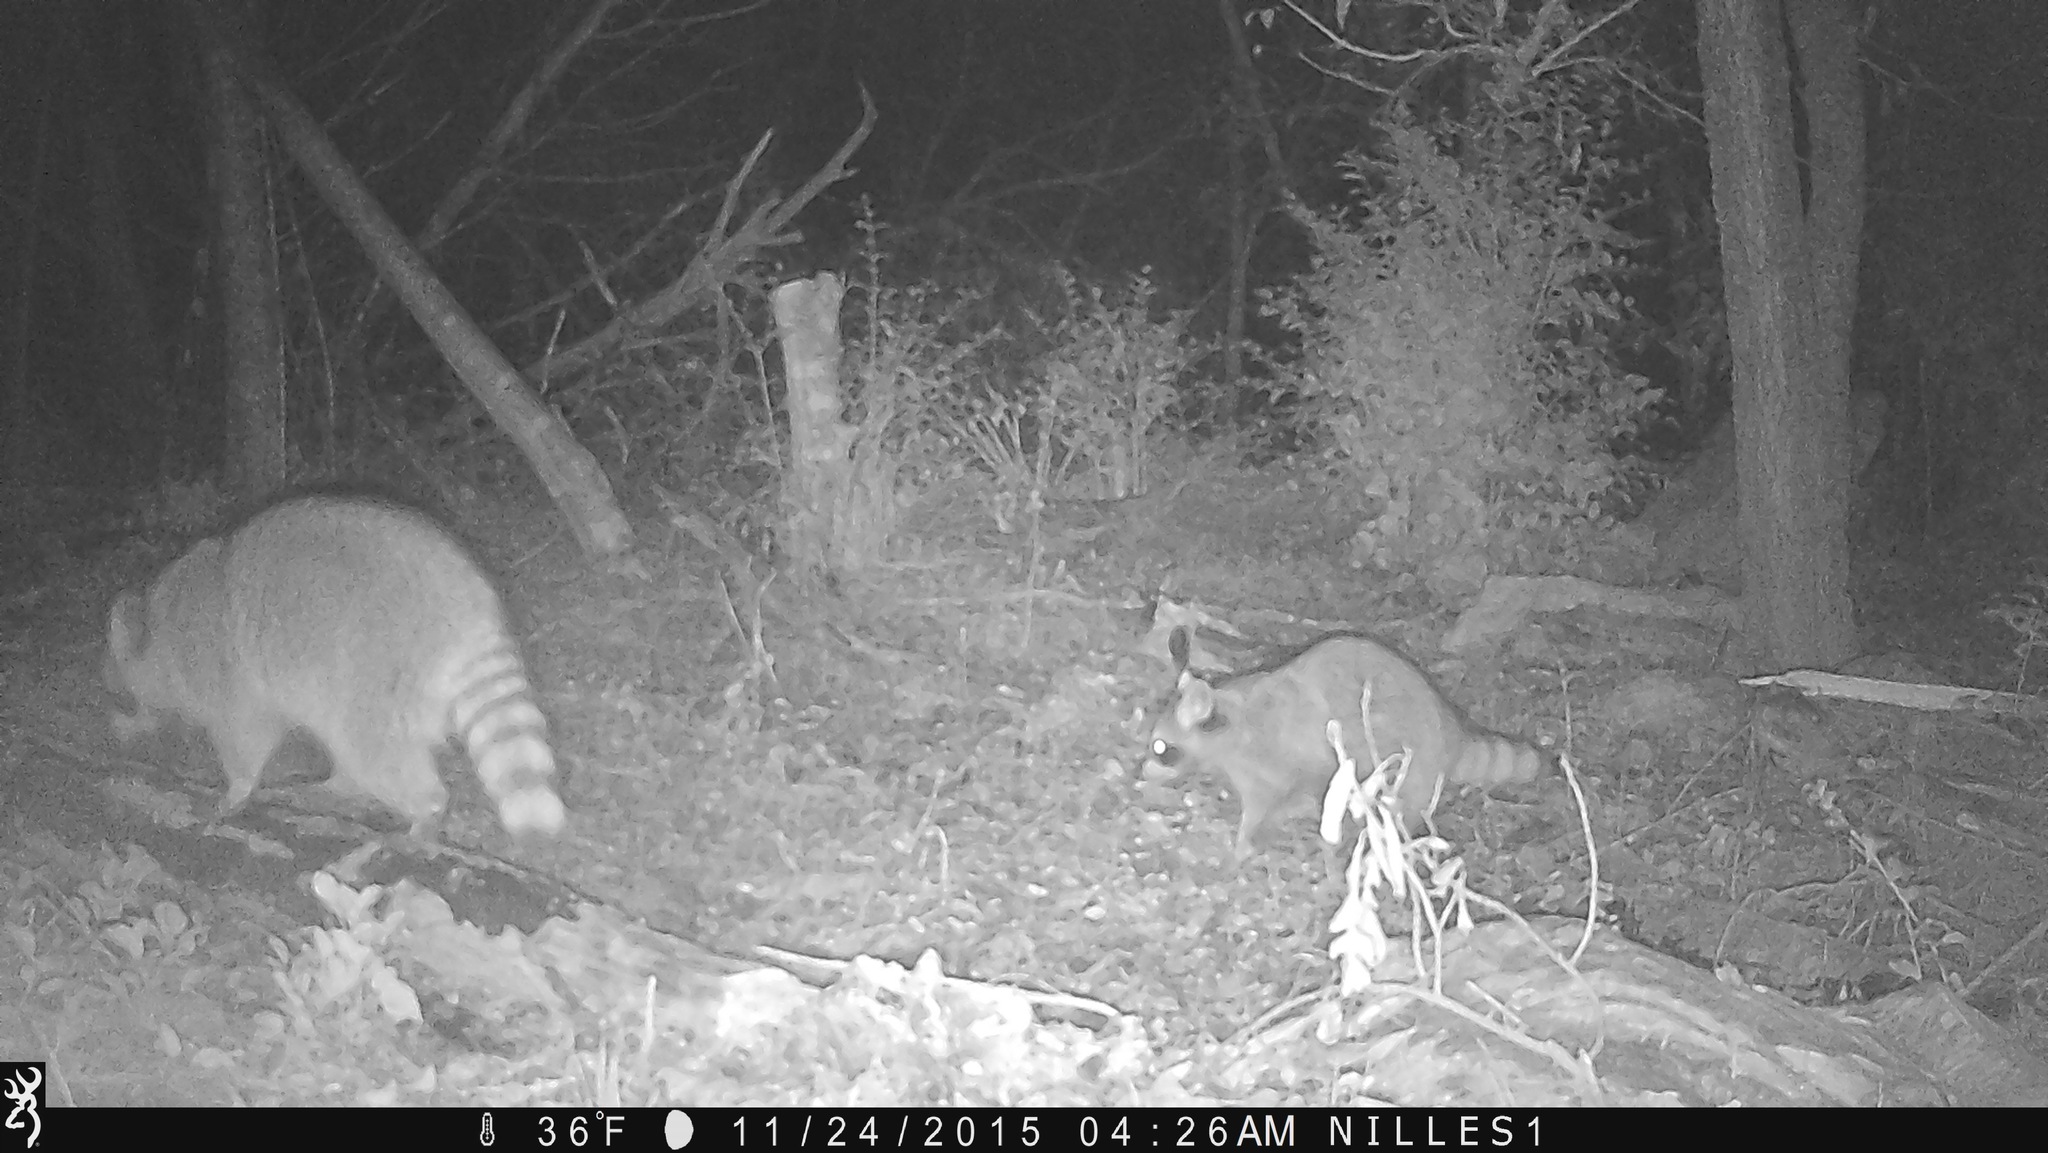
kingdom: Animalia
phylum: Chordata
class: Mammalia
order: Carnivora
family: Procyonidae
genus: Procyon
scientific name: Procyon lotor
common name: Raccoon
